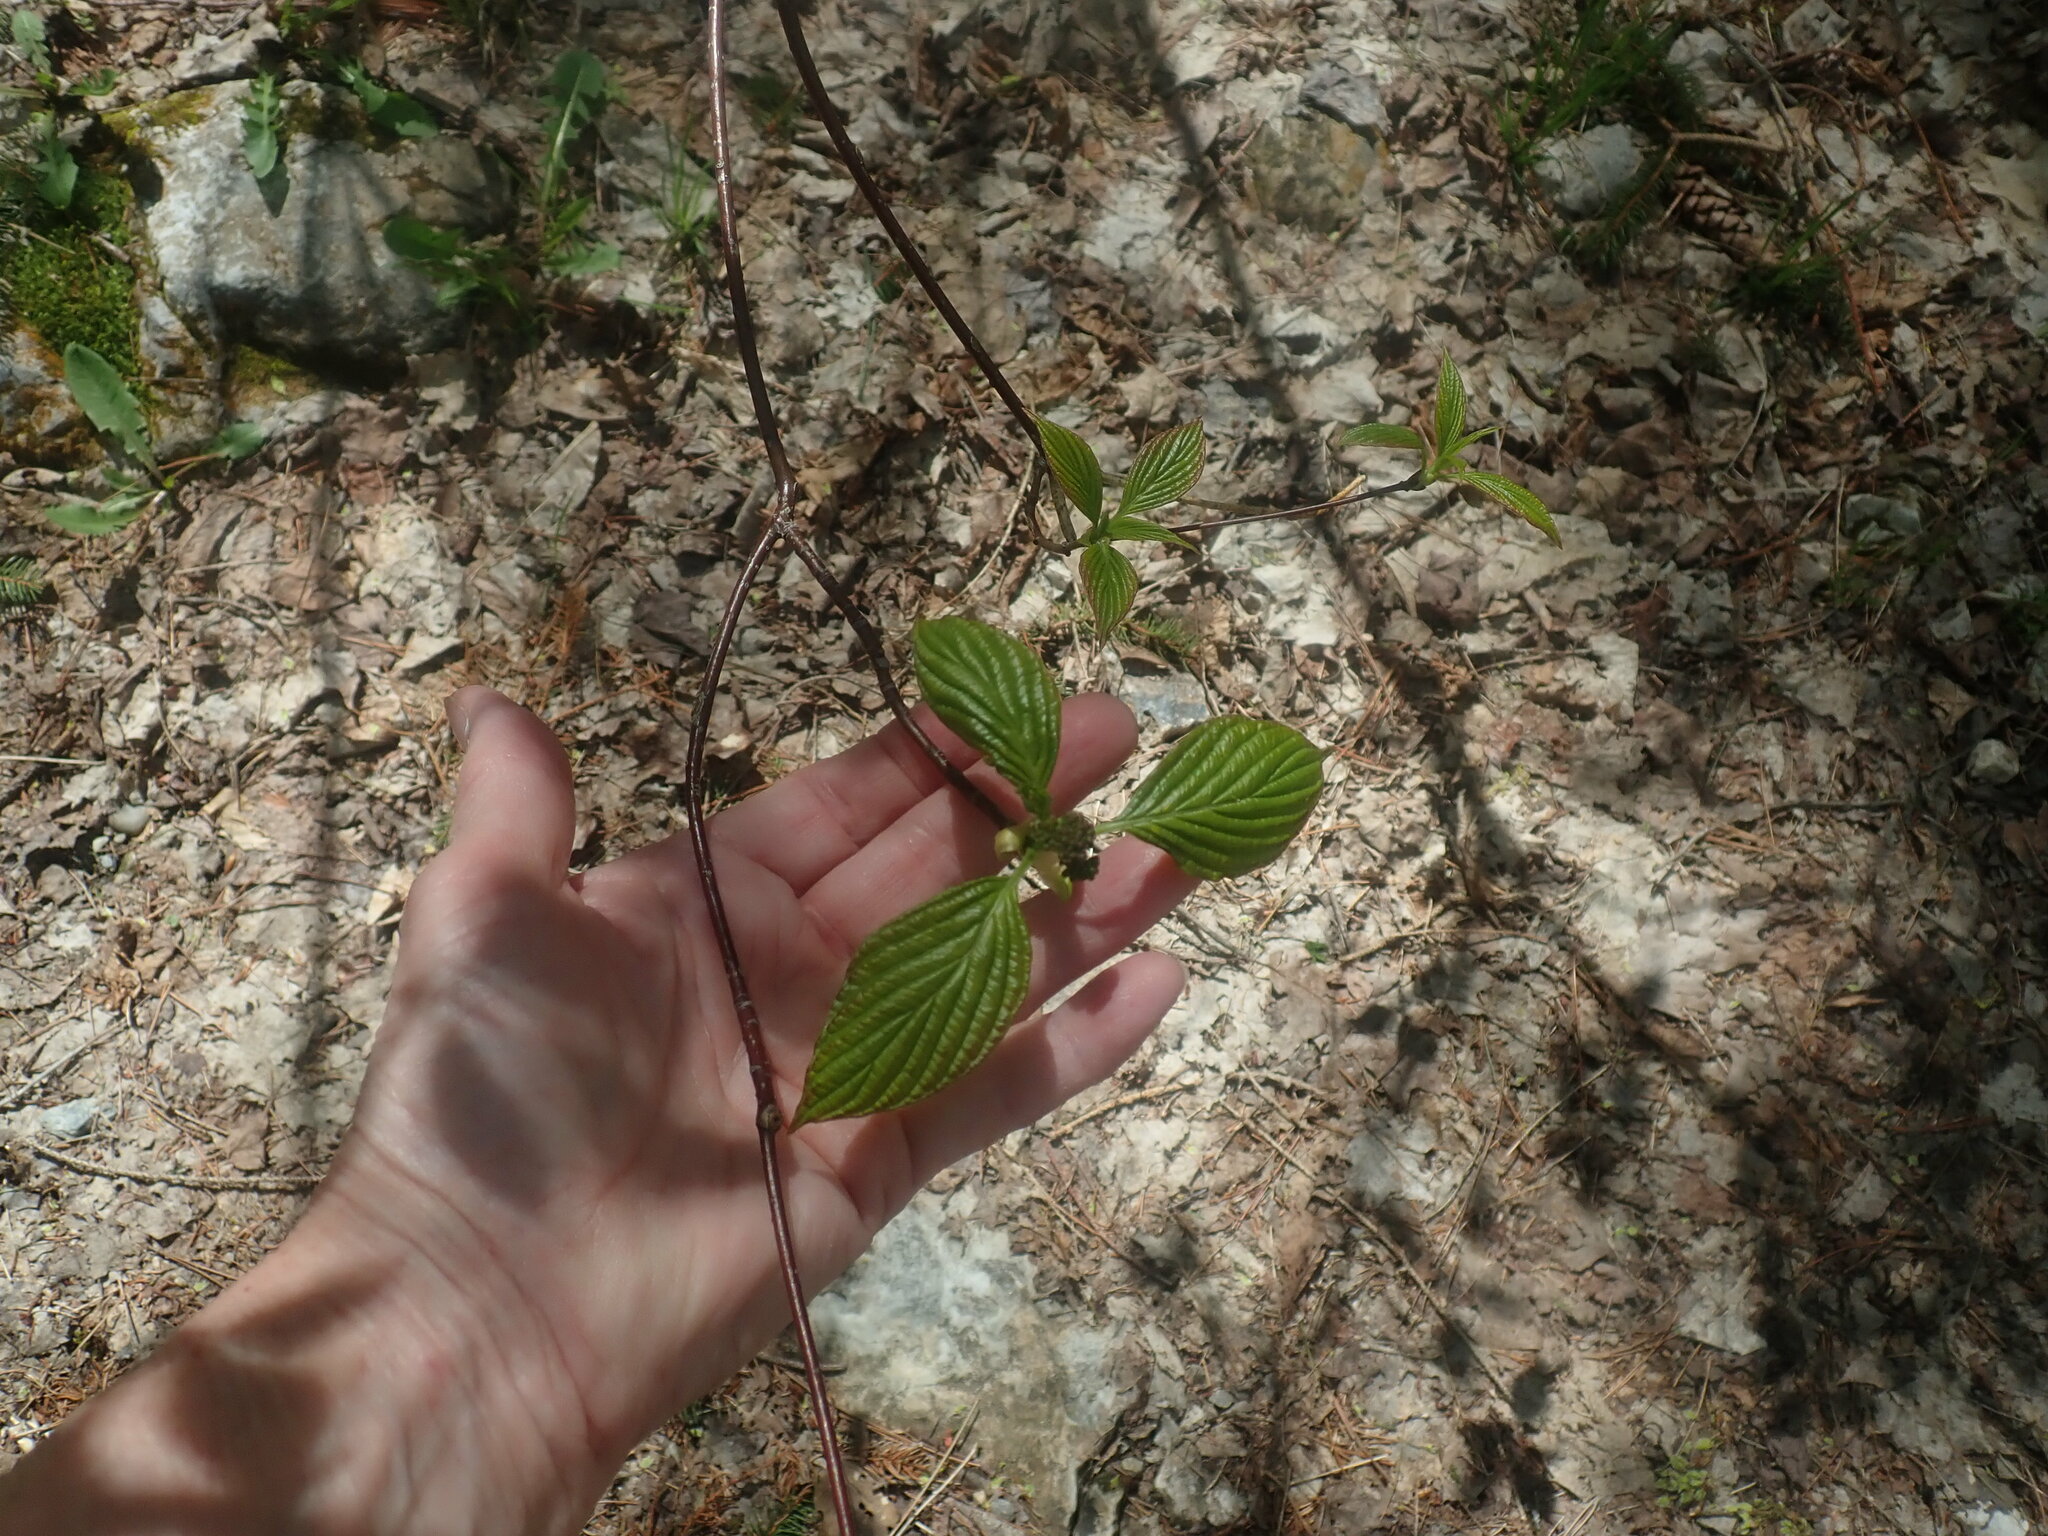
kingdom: Plantae
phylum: Tracheophyta
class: Magnoliopsida
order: Cornales
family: Cornaceae
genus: Cornus
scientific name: Cornus alternifolia
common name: Pagoda dogwood
